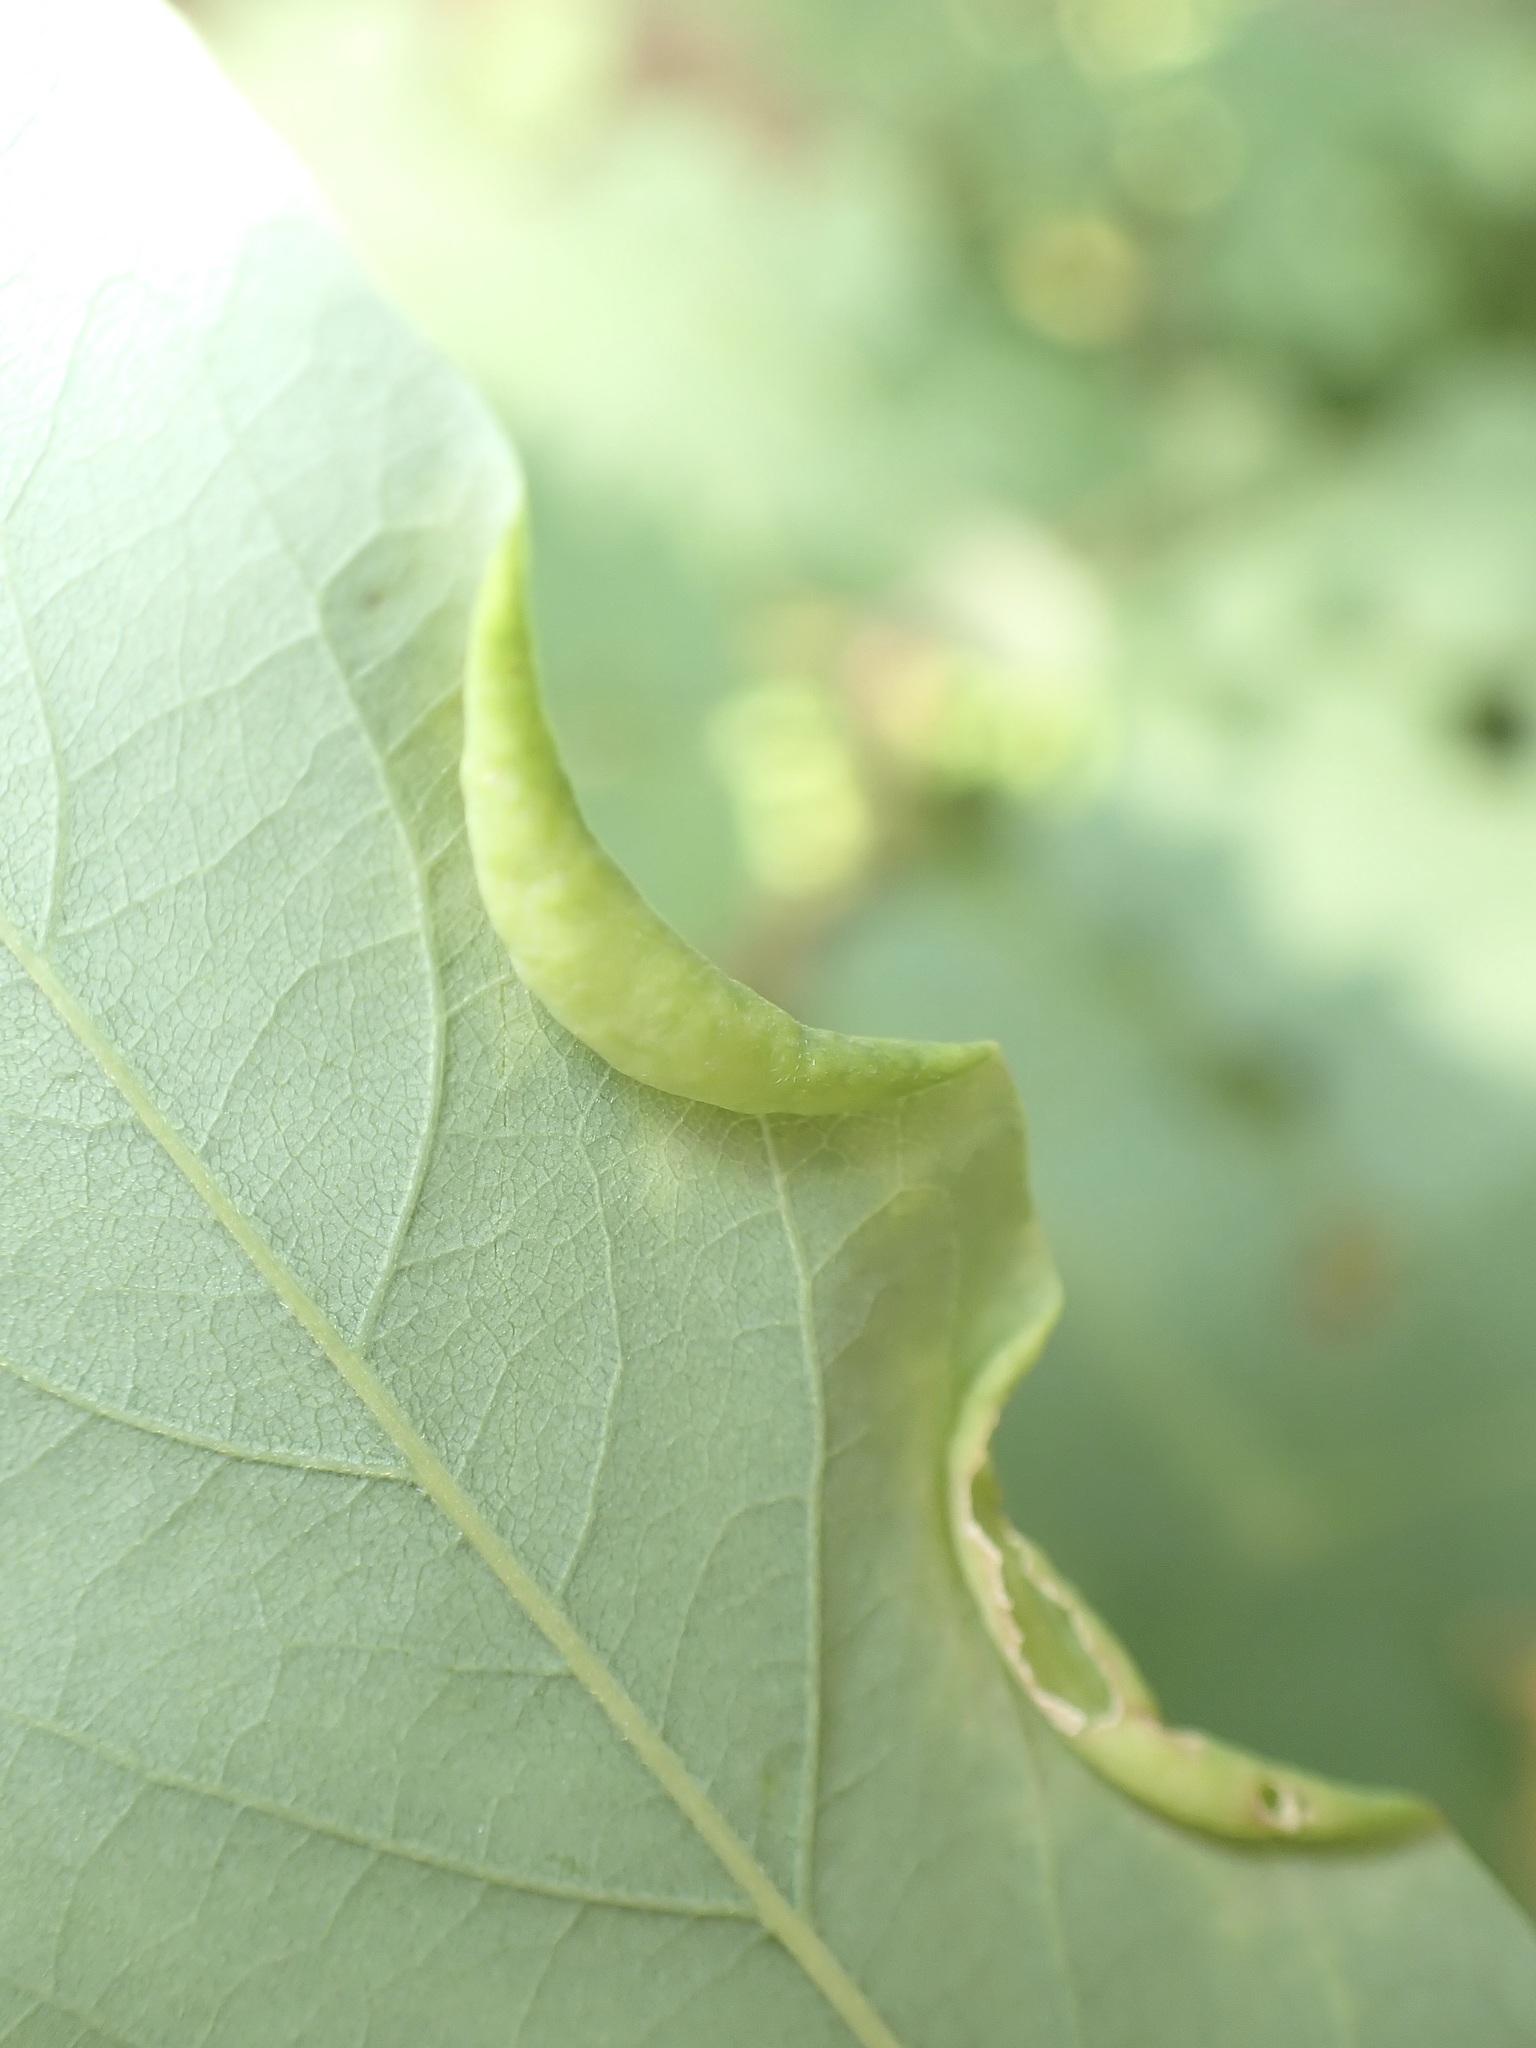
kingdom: Animalia
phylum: Arthropoda
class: Insecta
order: Diptera
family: Cecidomyiidae
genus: Obolodiplosis
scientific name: Obolodiplosis robiniae
